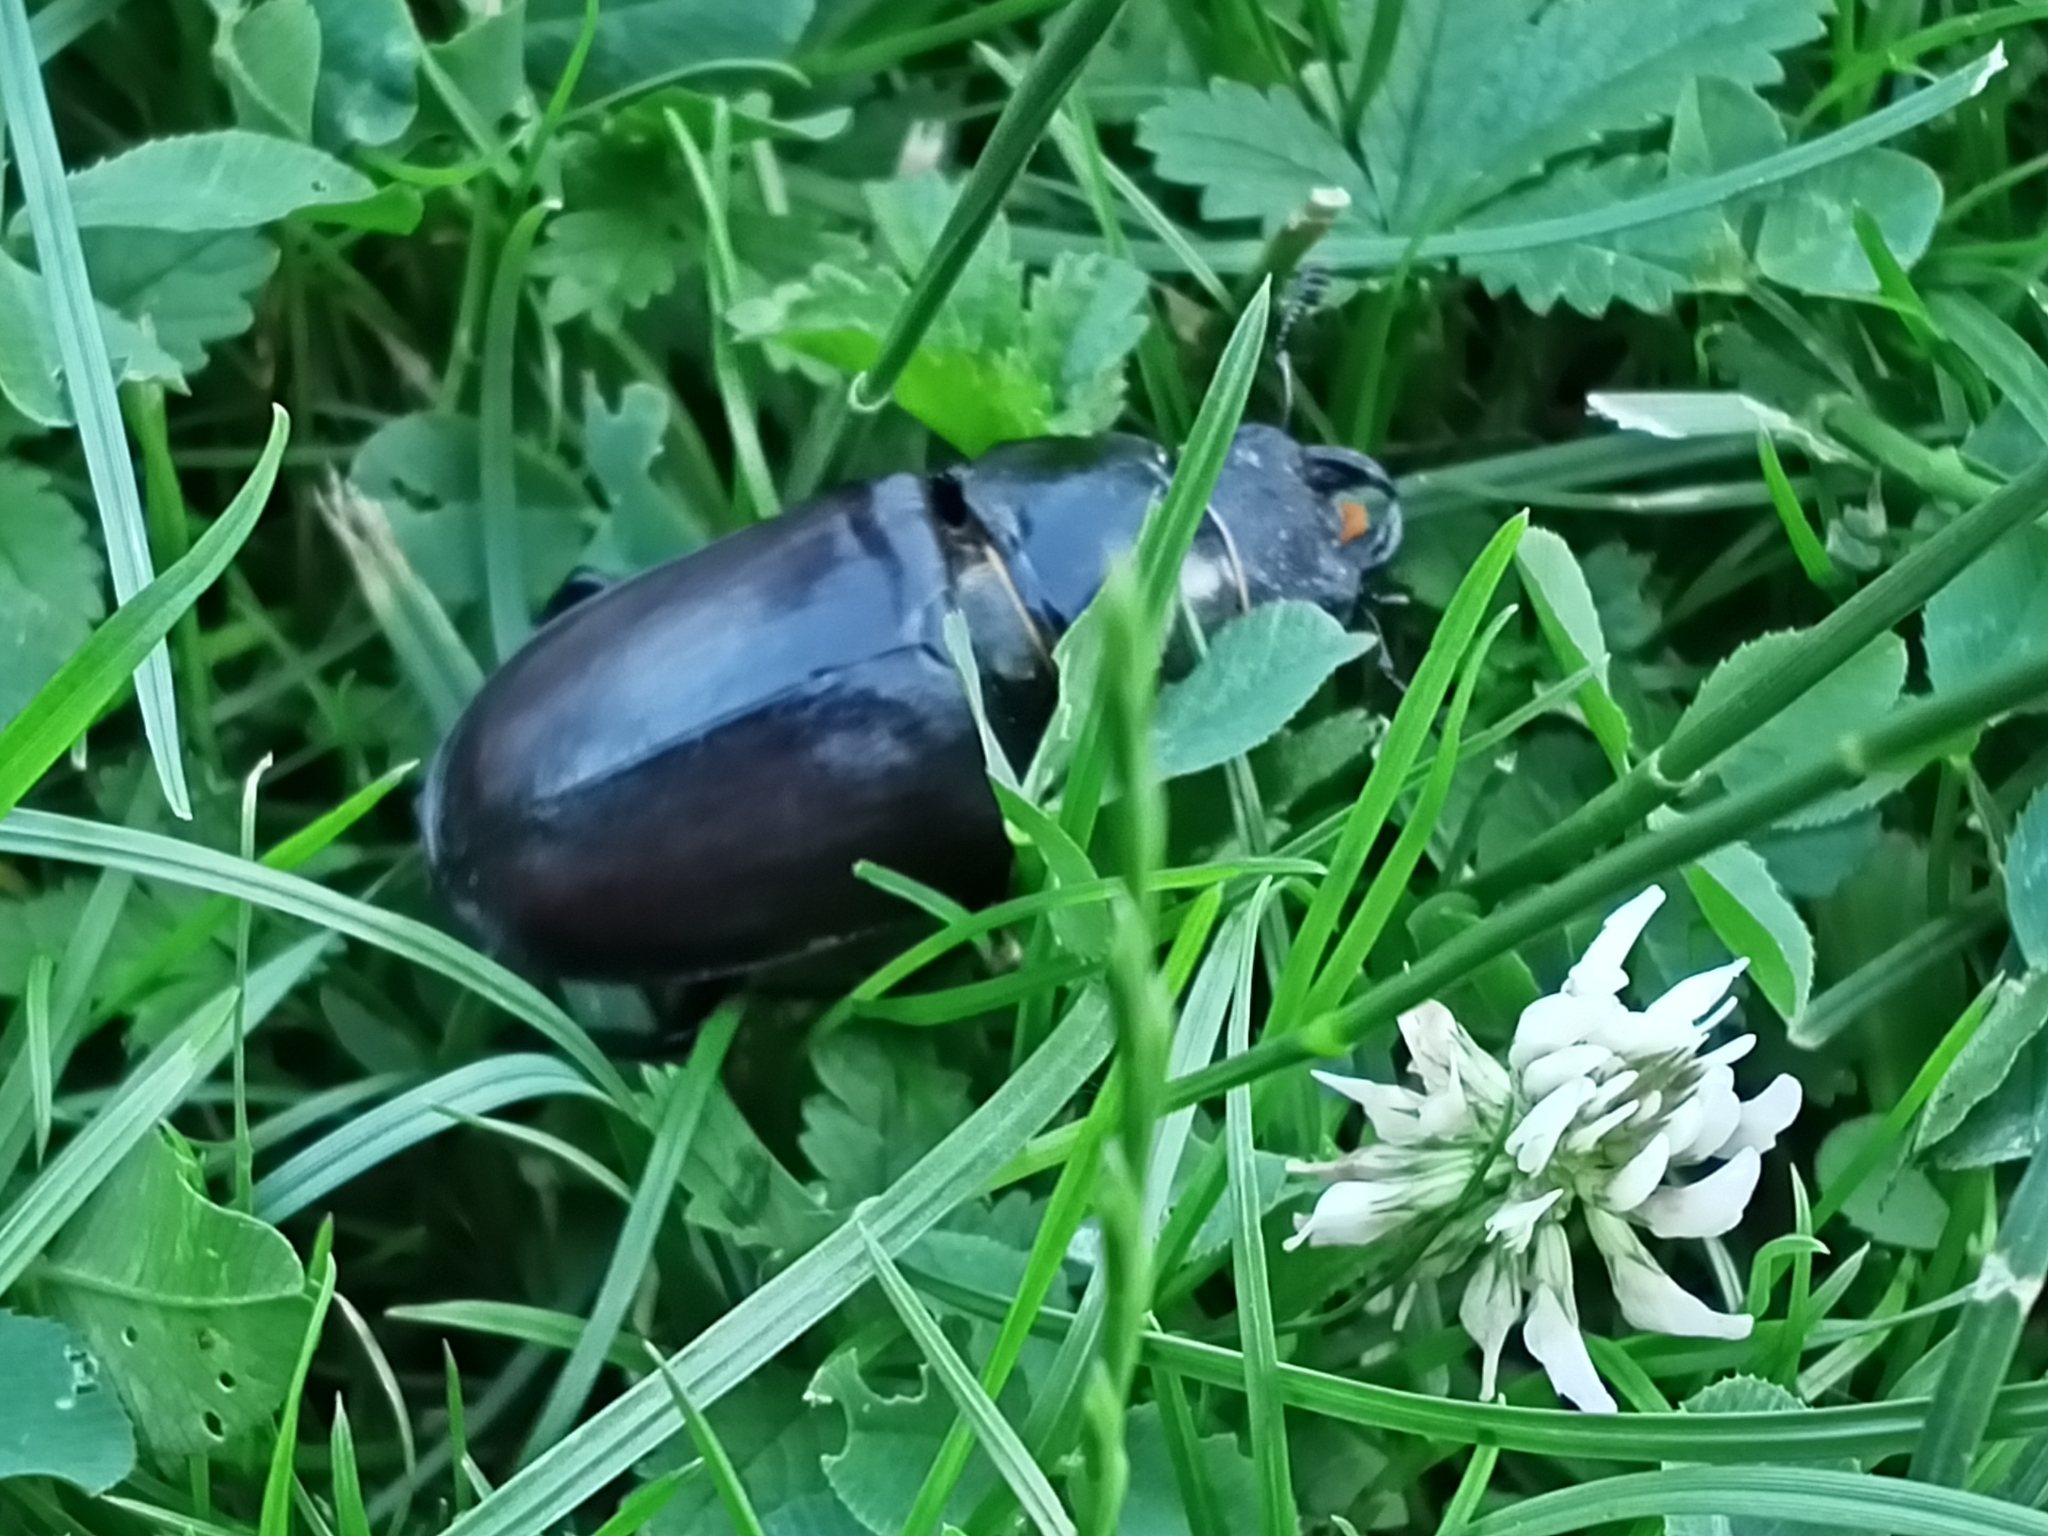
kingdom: Animalia
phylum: Arthropoda
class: Insecta
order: Coleoptera
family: Lucanidae
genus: Lucanus
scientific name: Lucanus cervus
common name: Stag beetle
